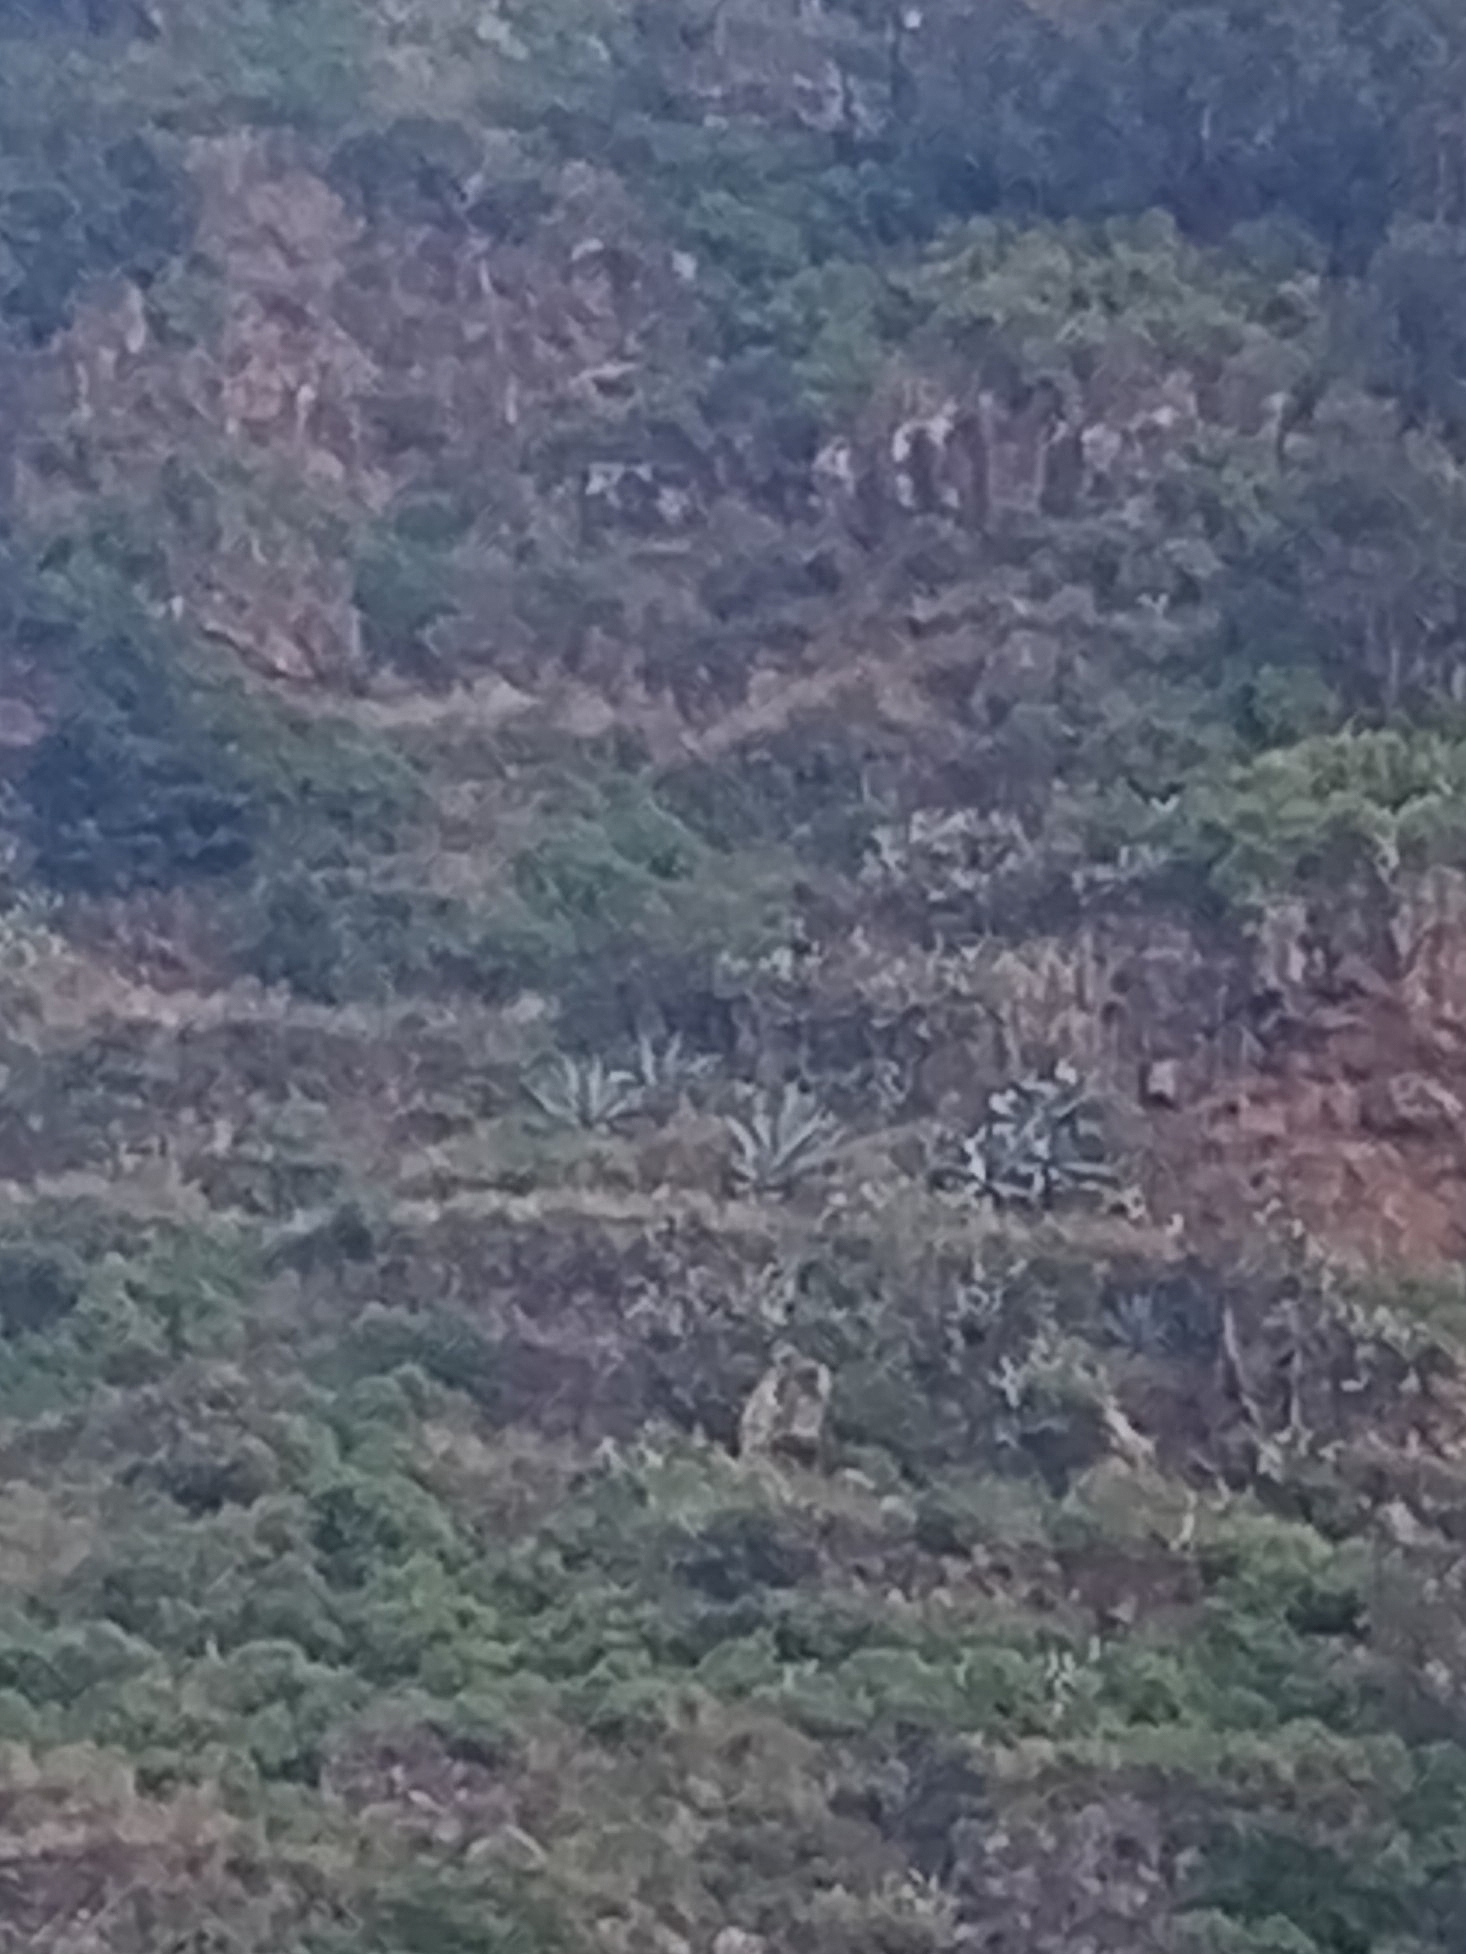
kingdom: Plantae
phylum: Tracheophyta
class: Liliopsida
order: Asparagales
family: Asparagaceae
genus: Agave
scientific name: Agave americana
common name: Centuryplant
